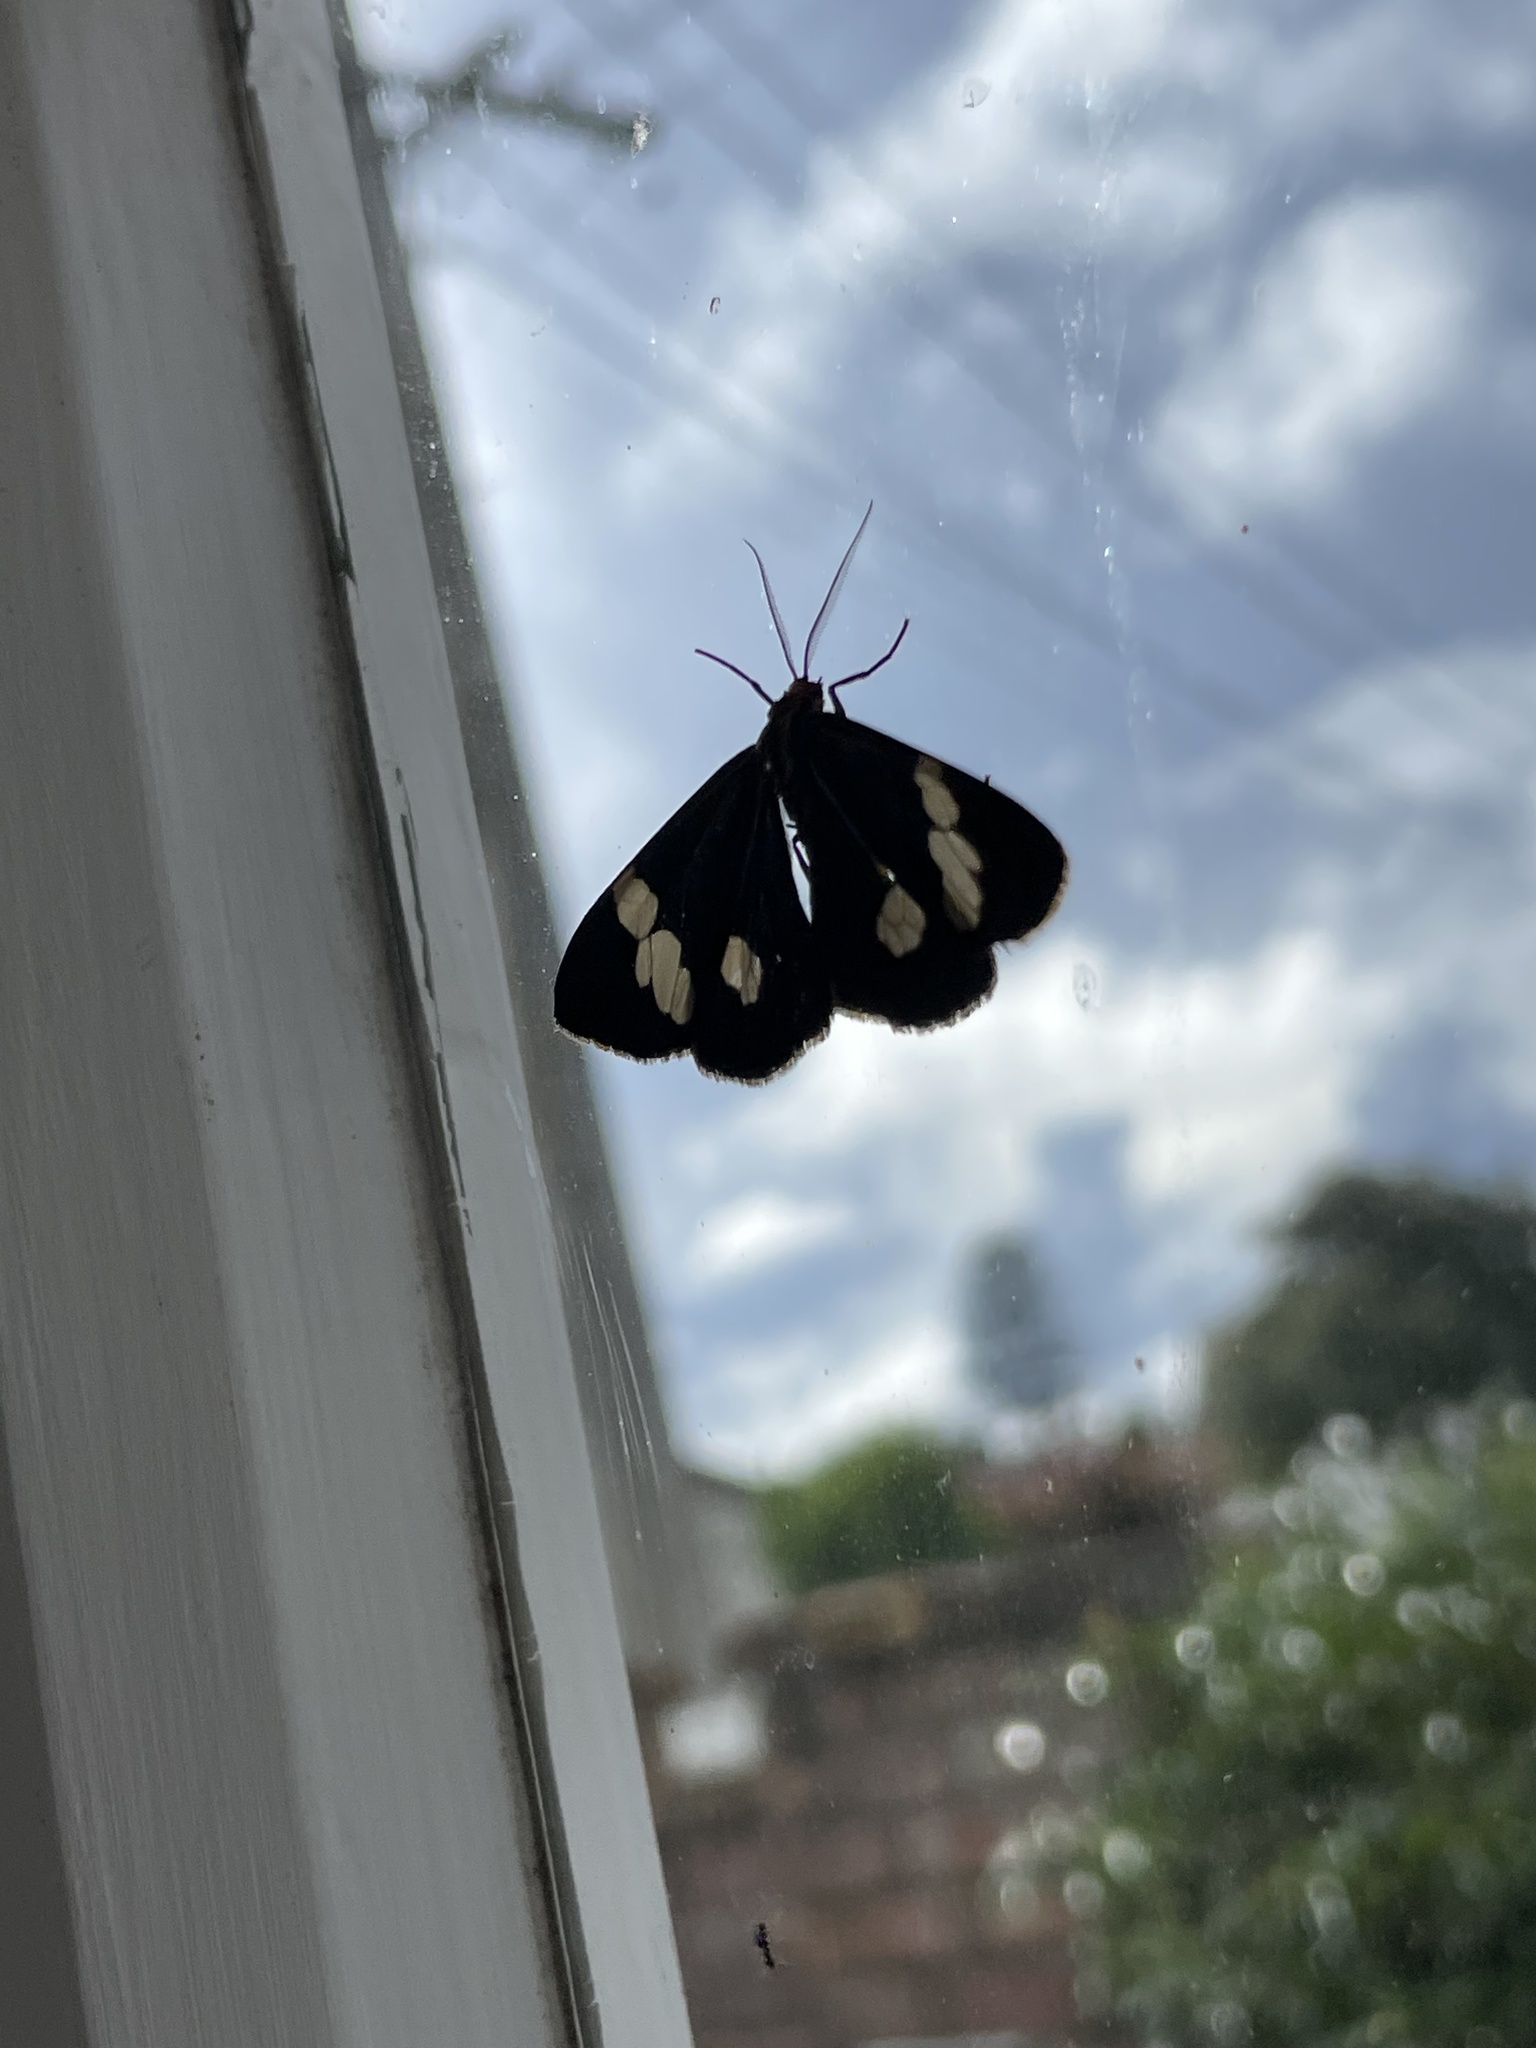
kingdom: Animalia
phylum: Arthropoda
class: Insecta
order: Lepidoptera
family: Erebidae
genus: Nyctemera
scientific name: Nyctemera amicus
